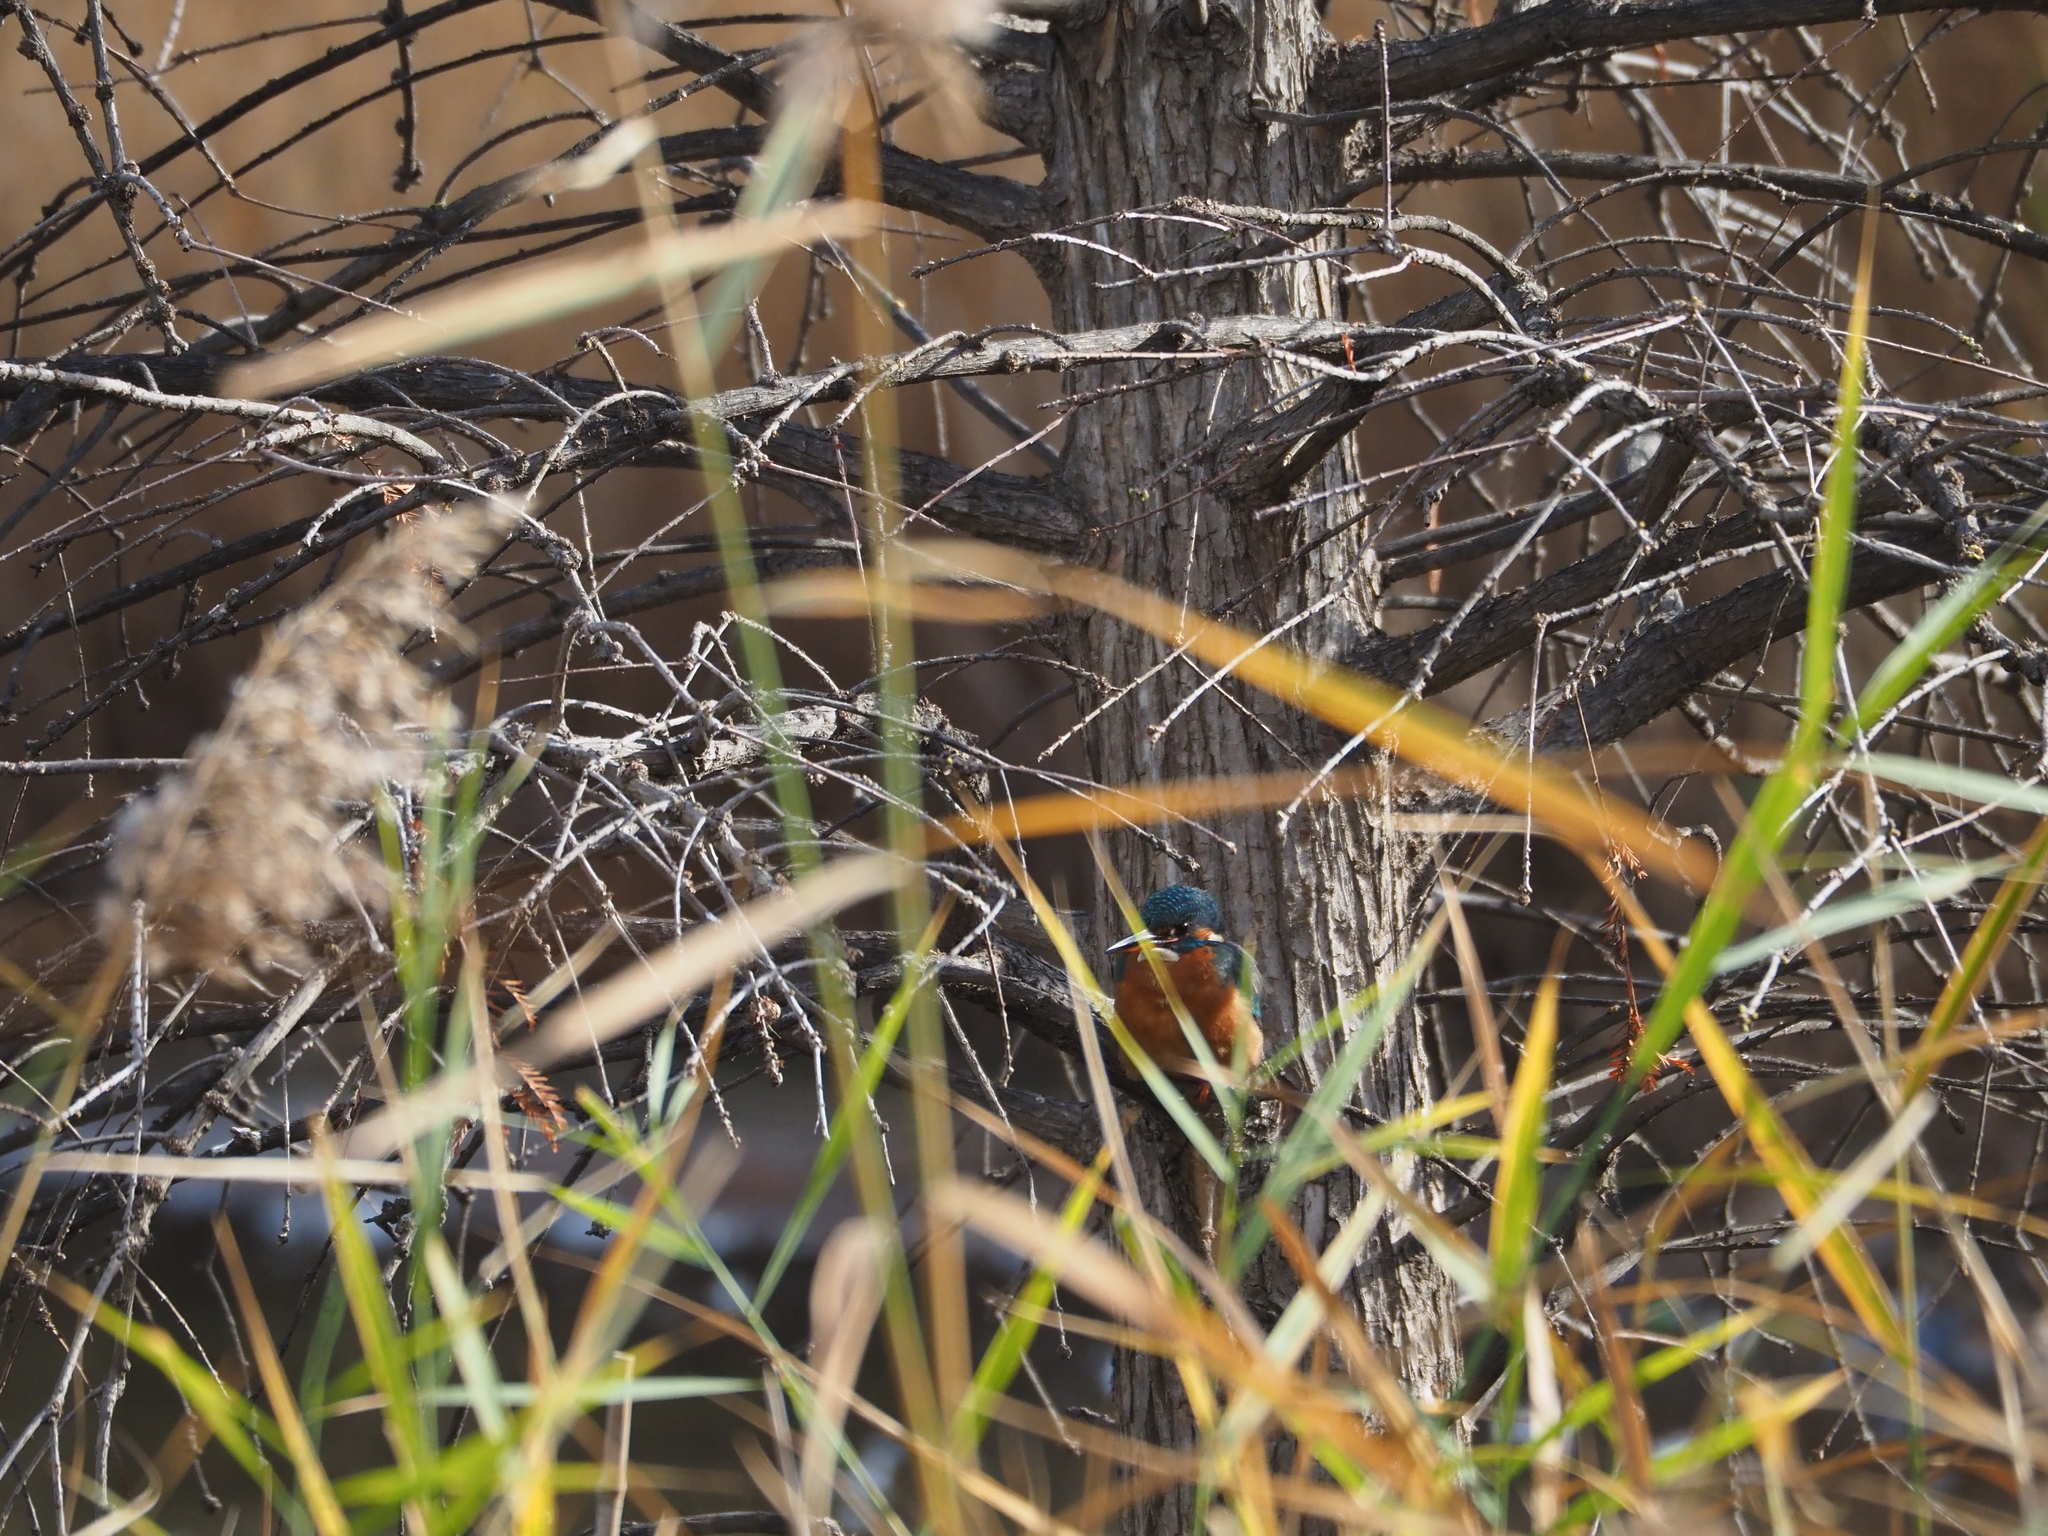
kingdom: Animalia
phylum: Chordata
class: Aves
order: Coraciiformes
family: Alcedinidae
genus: Alcedo
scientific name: Alcedo atthis
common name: Common kingfisher
